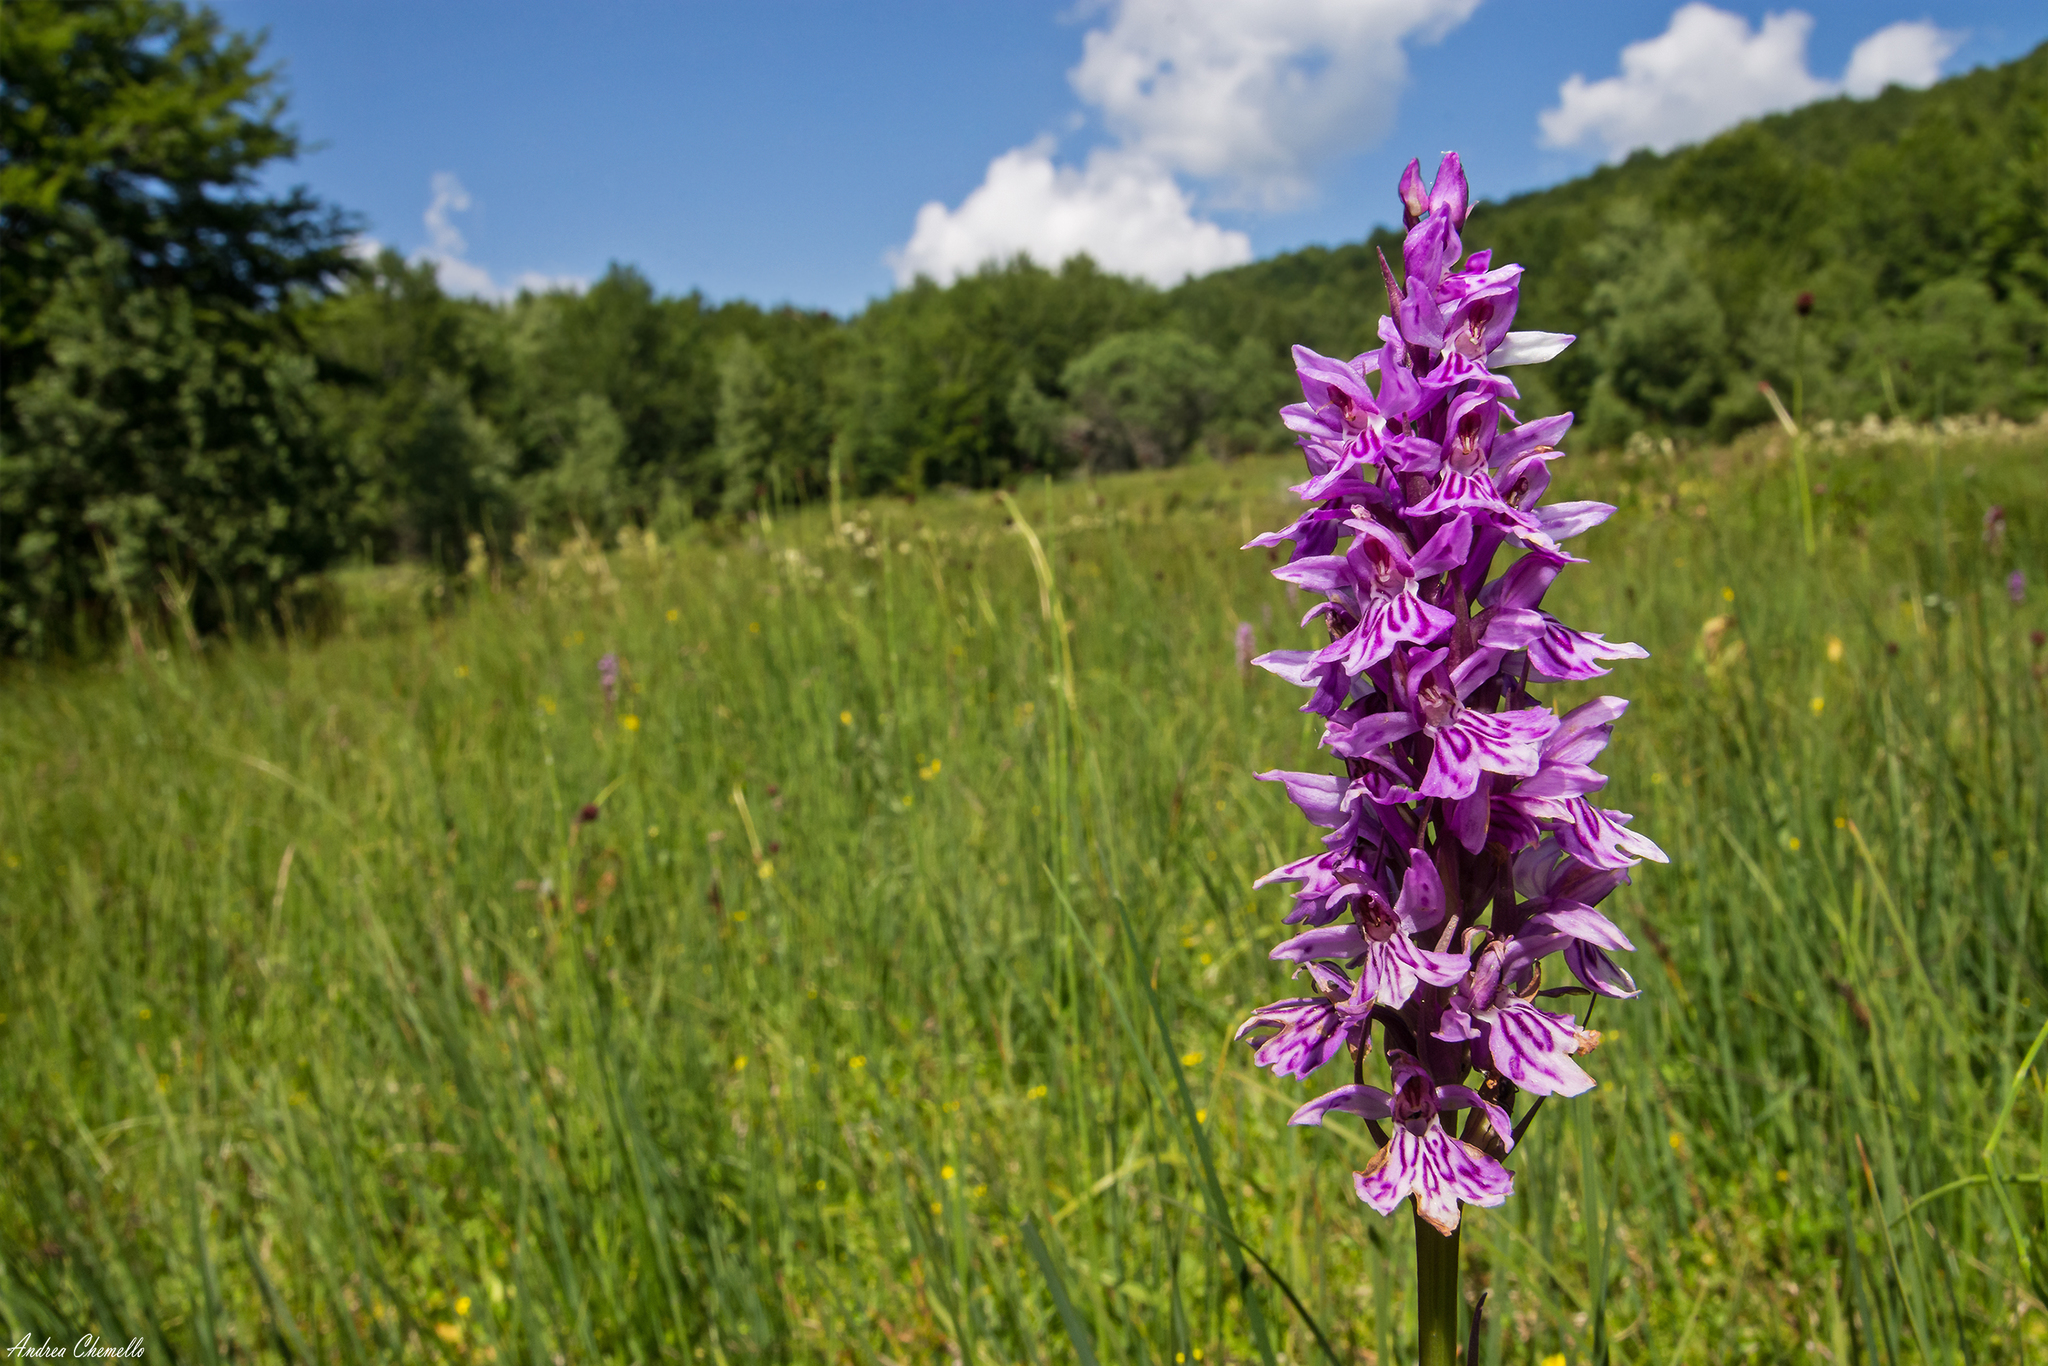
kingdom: Plantae
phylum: Tracheophyta
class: Liliopsida
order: Asparagales
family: Orchidaceae
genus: Dactylorhiza
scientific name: Dactylorhiza maculata
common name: Heath spotted-orchid
